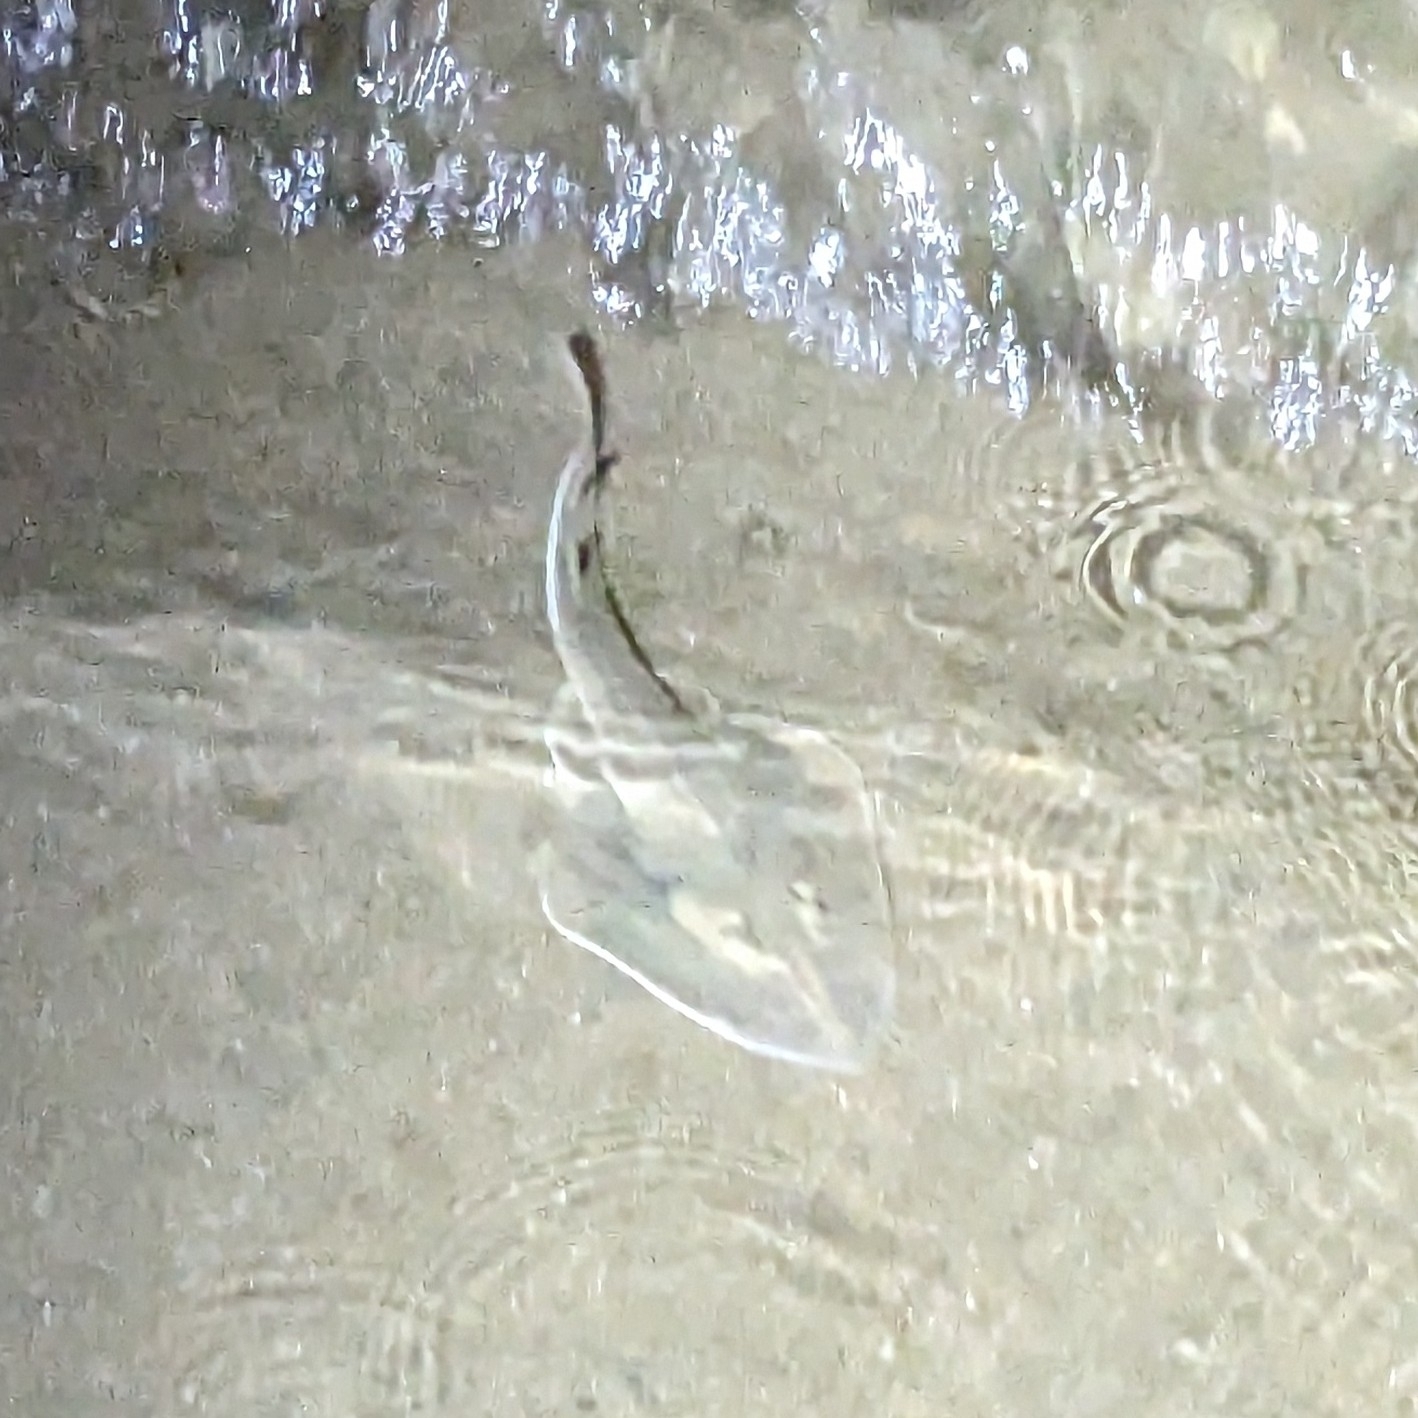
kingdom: Animalia
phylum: Chordata
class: Elasmobranchii
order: Rhinopristiformes
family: Glaucostegidae
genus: Glaucostegus
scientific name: Glaucostegus obtusus
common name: Widenose guitarfish
